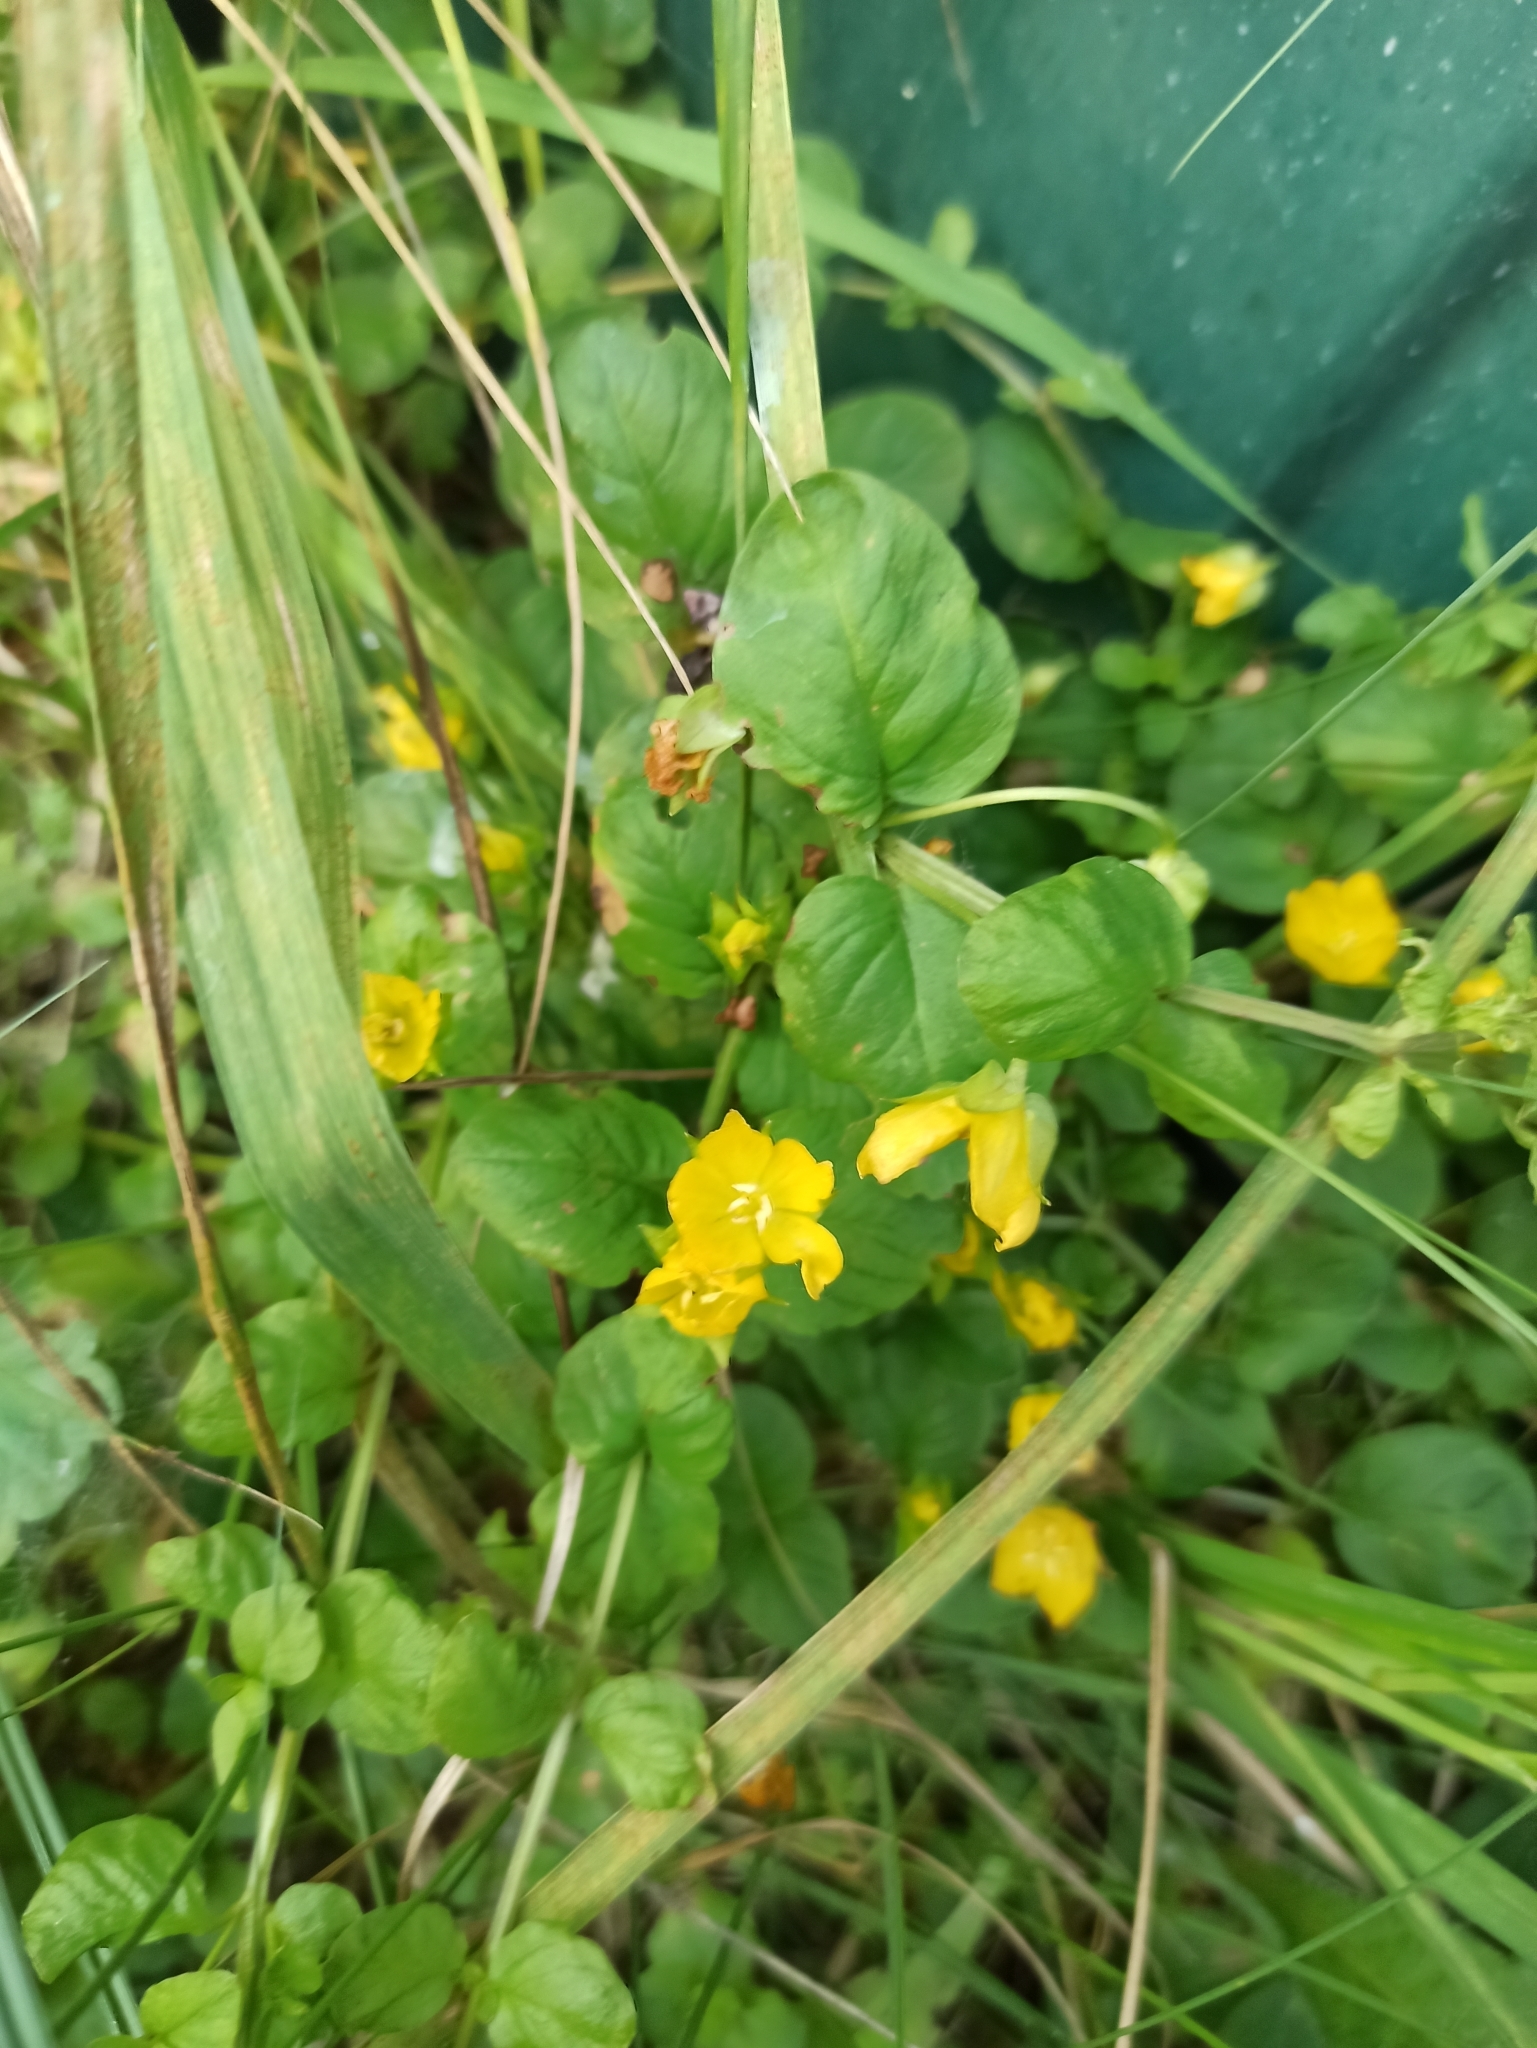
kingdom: Plantae
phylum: Tracheophyta
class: Magnoliopsida
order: Ericales
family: Primulaceae
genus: Lysimachia
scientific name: Lysimachia nummularia
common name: Moneywort
